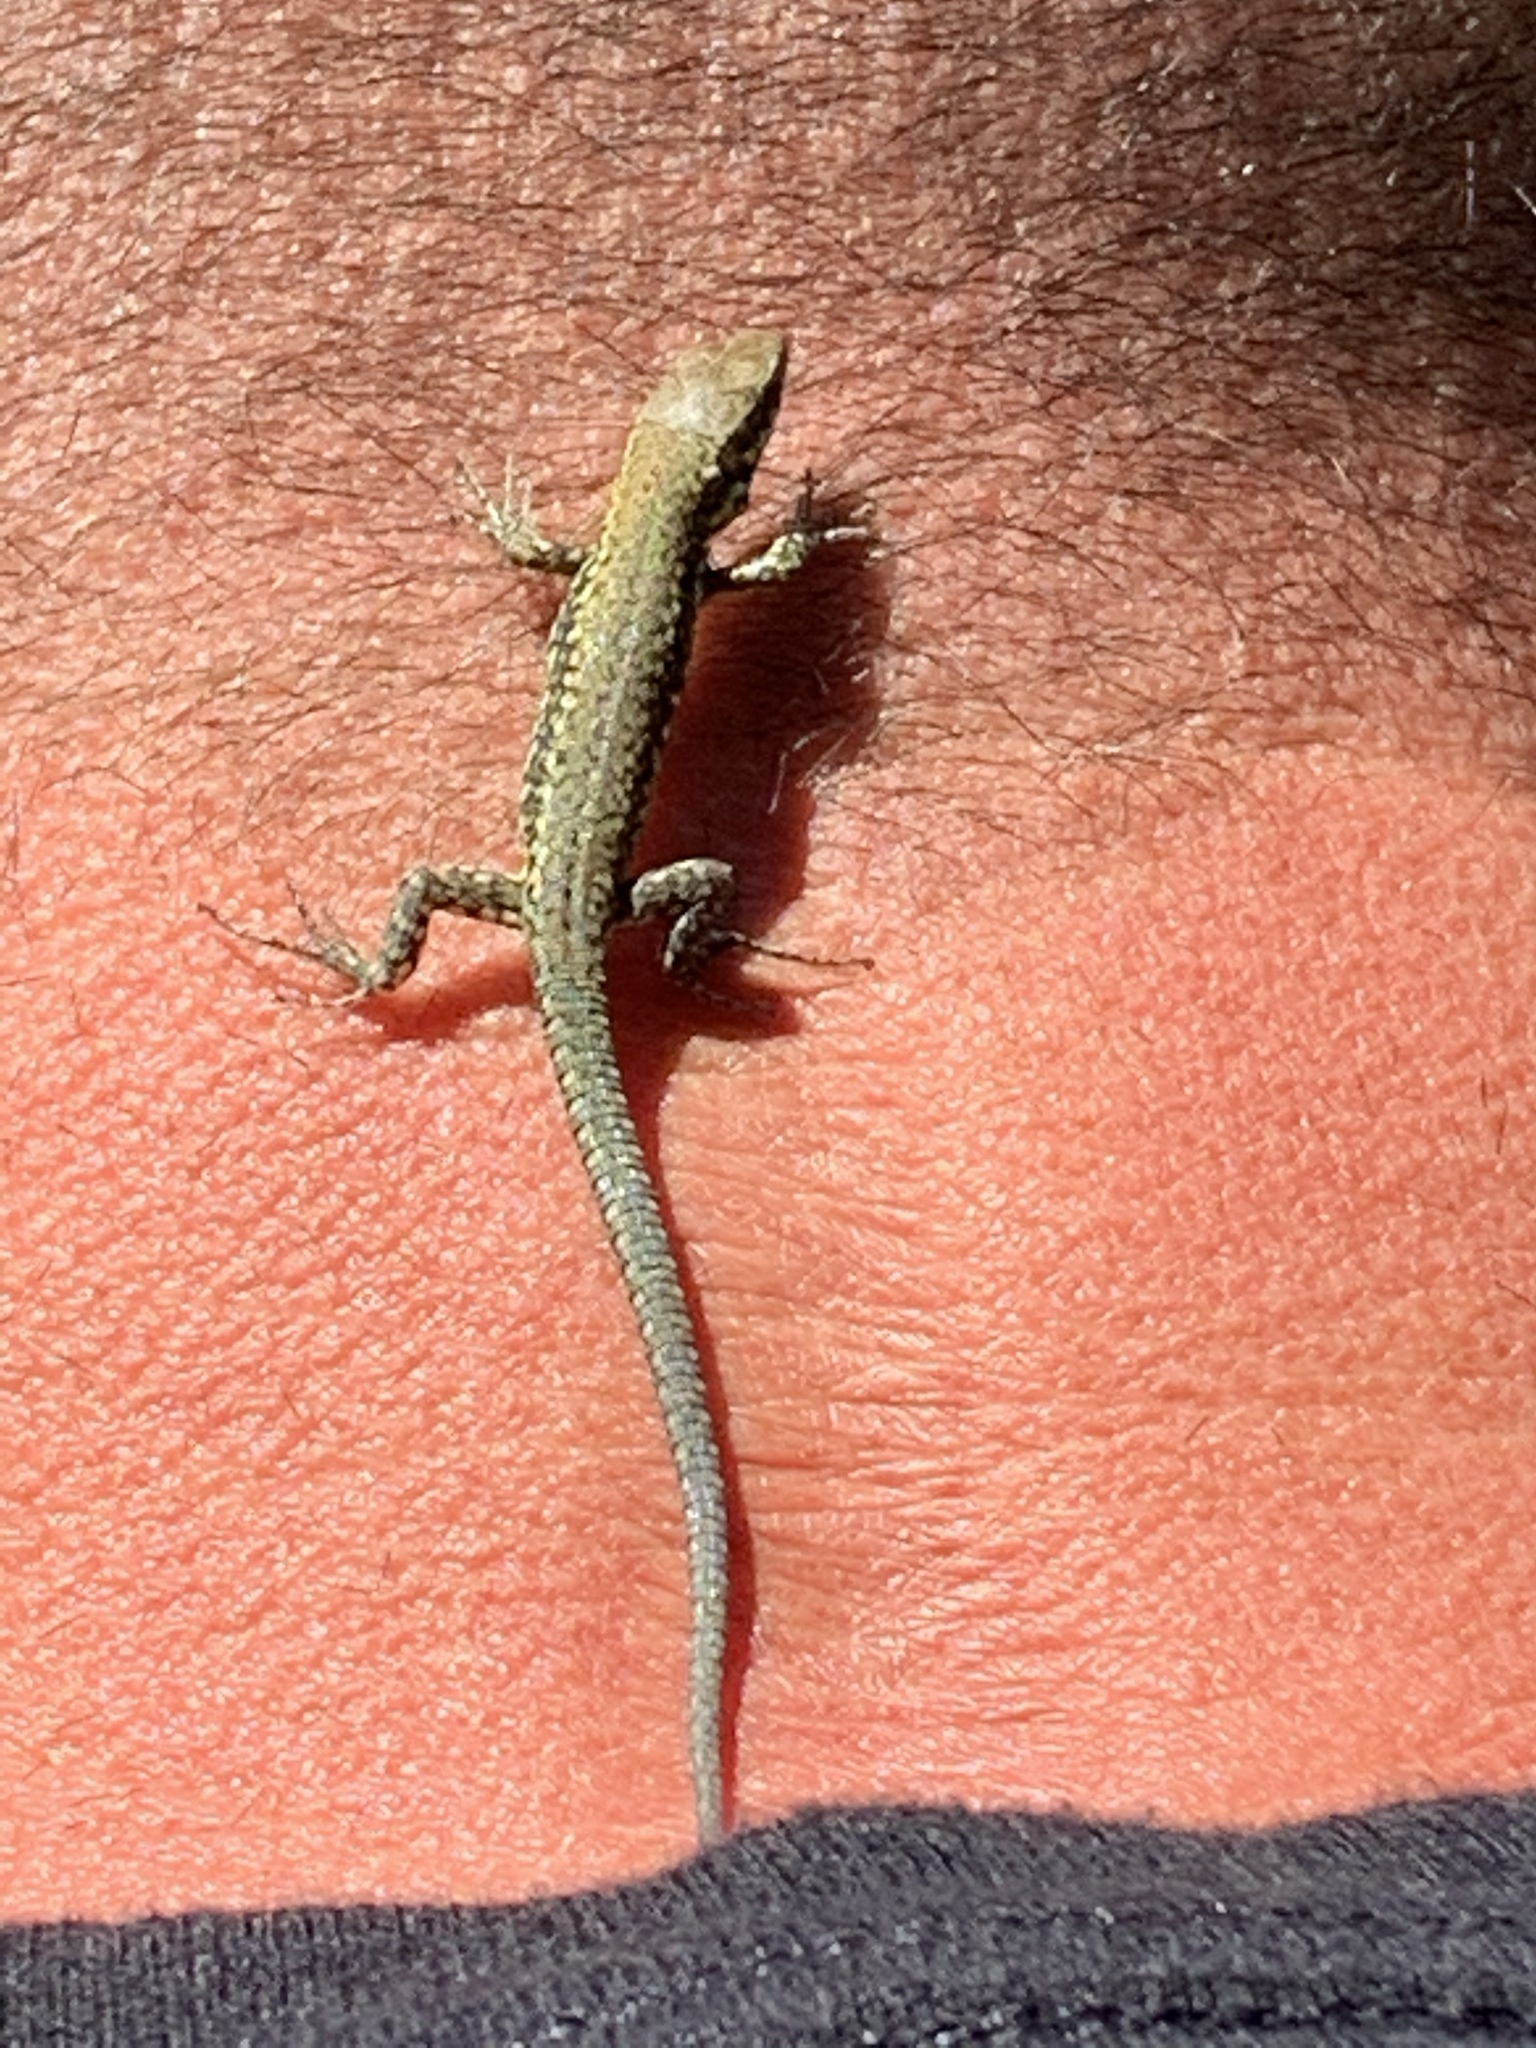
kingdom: Animalia
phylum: Chordata
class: Squamata
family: Lacertidae
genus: Podarcis
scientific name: Podarcis muralis
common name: Common wall lizard
